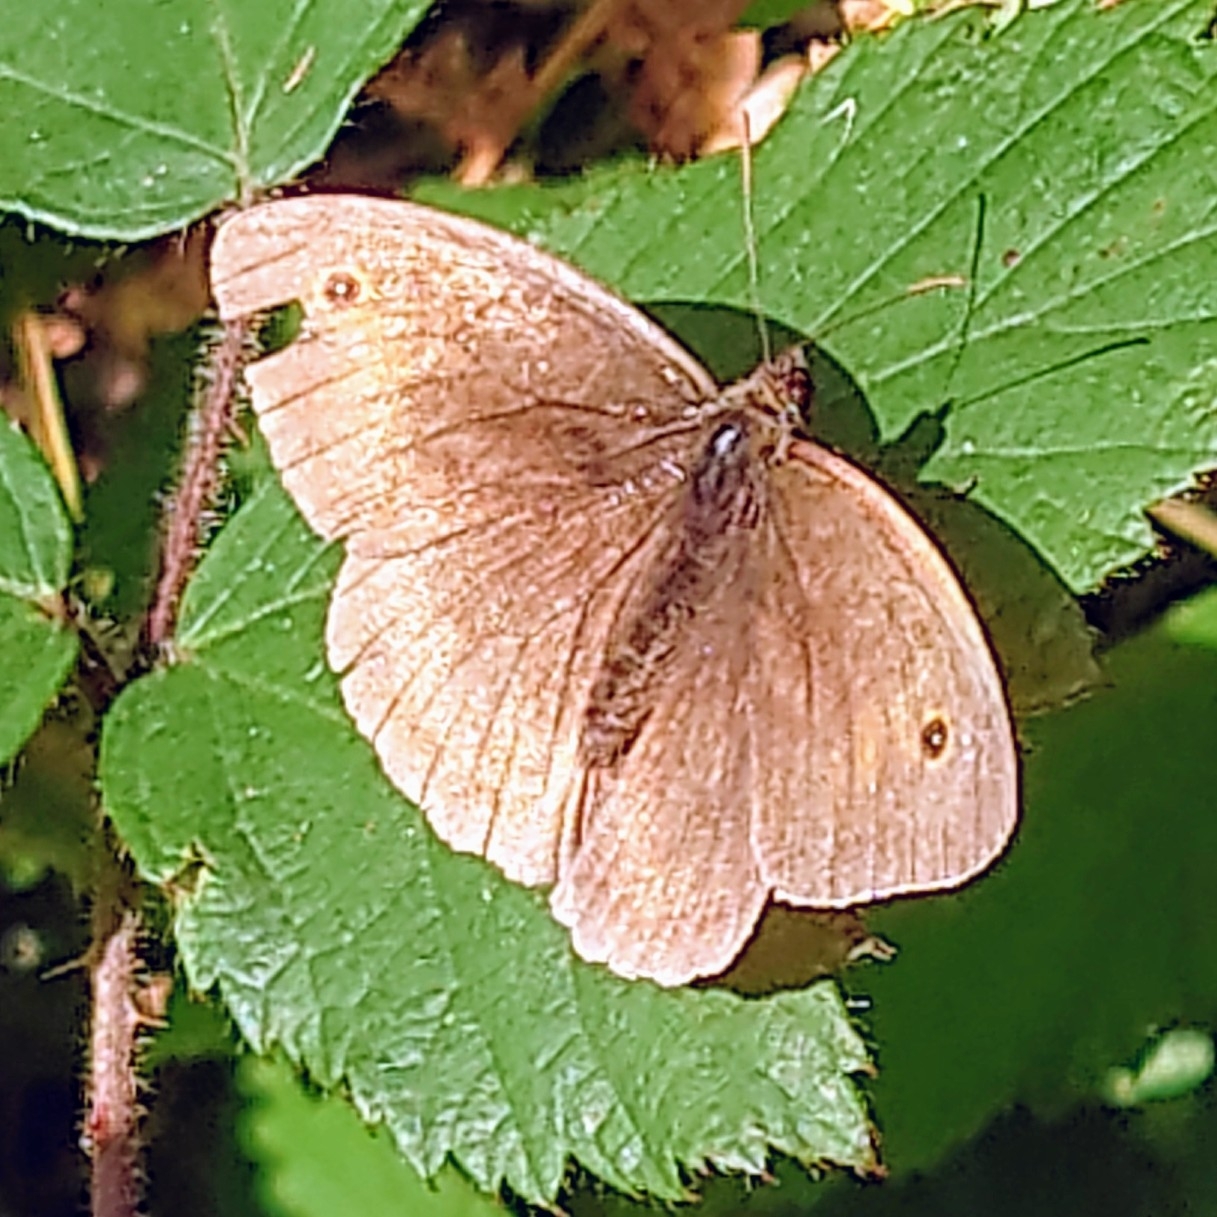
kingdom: Animalia
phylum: Arthropoda
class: Insecta
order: Lepidoptera
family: Nymphalidae
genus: Maniola
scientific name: Maniola jurtina
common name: Meadow brown
